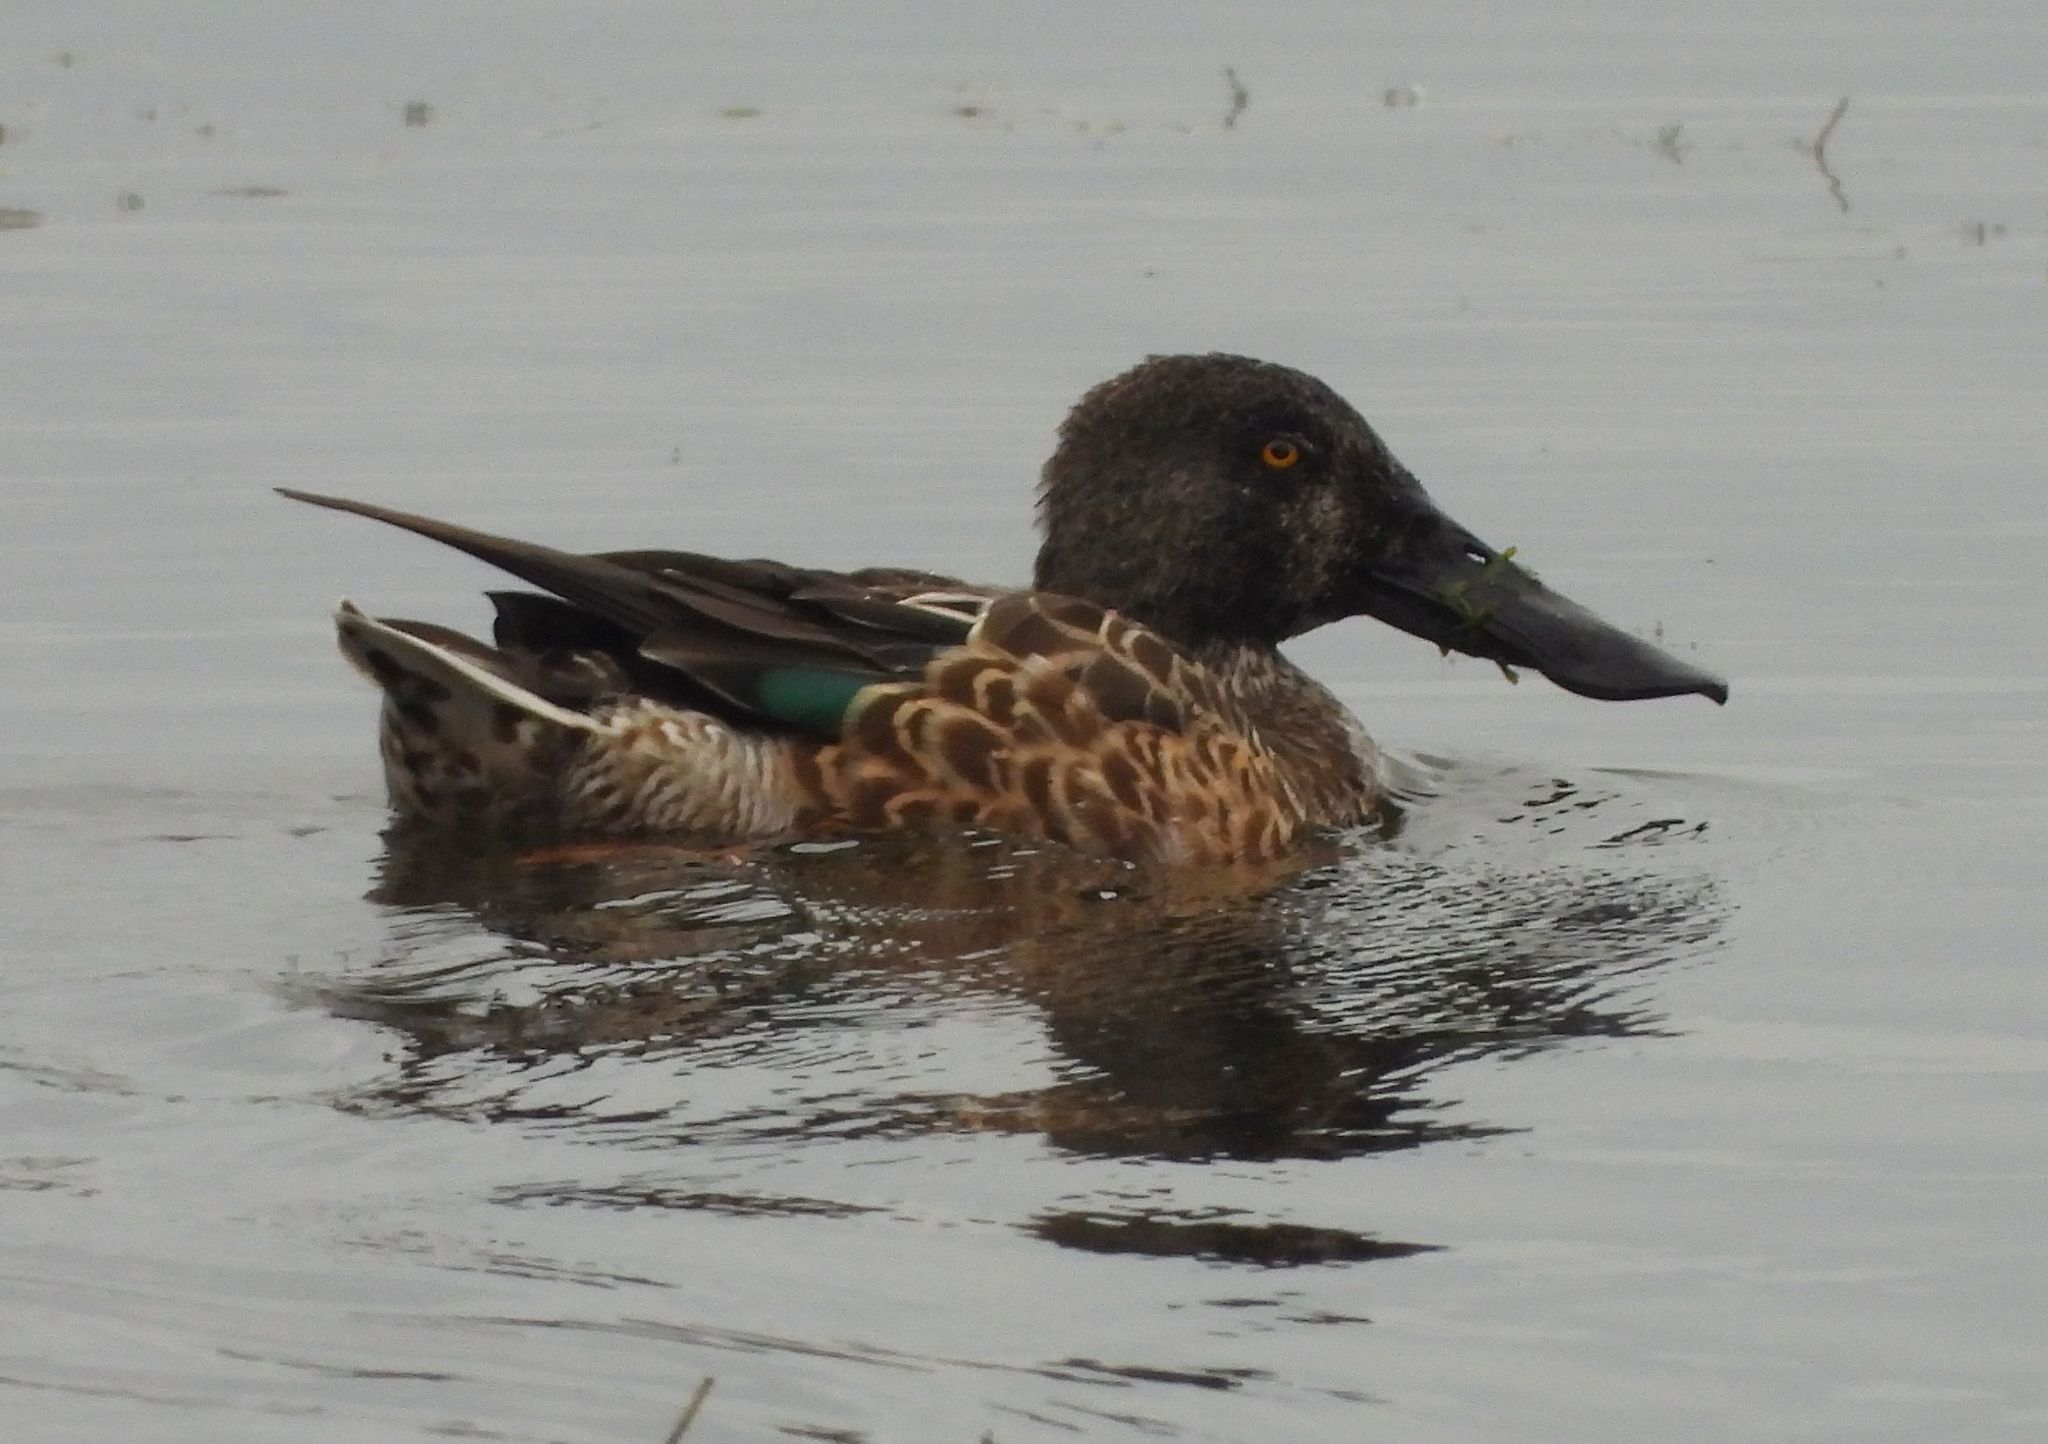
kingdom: Animalia
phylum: Chordata
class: Aves
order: Anseriformes
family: Anatidae
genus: Spatula
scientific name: Spatula clypeata
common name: Northern shoveler
